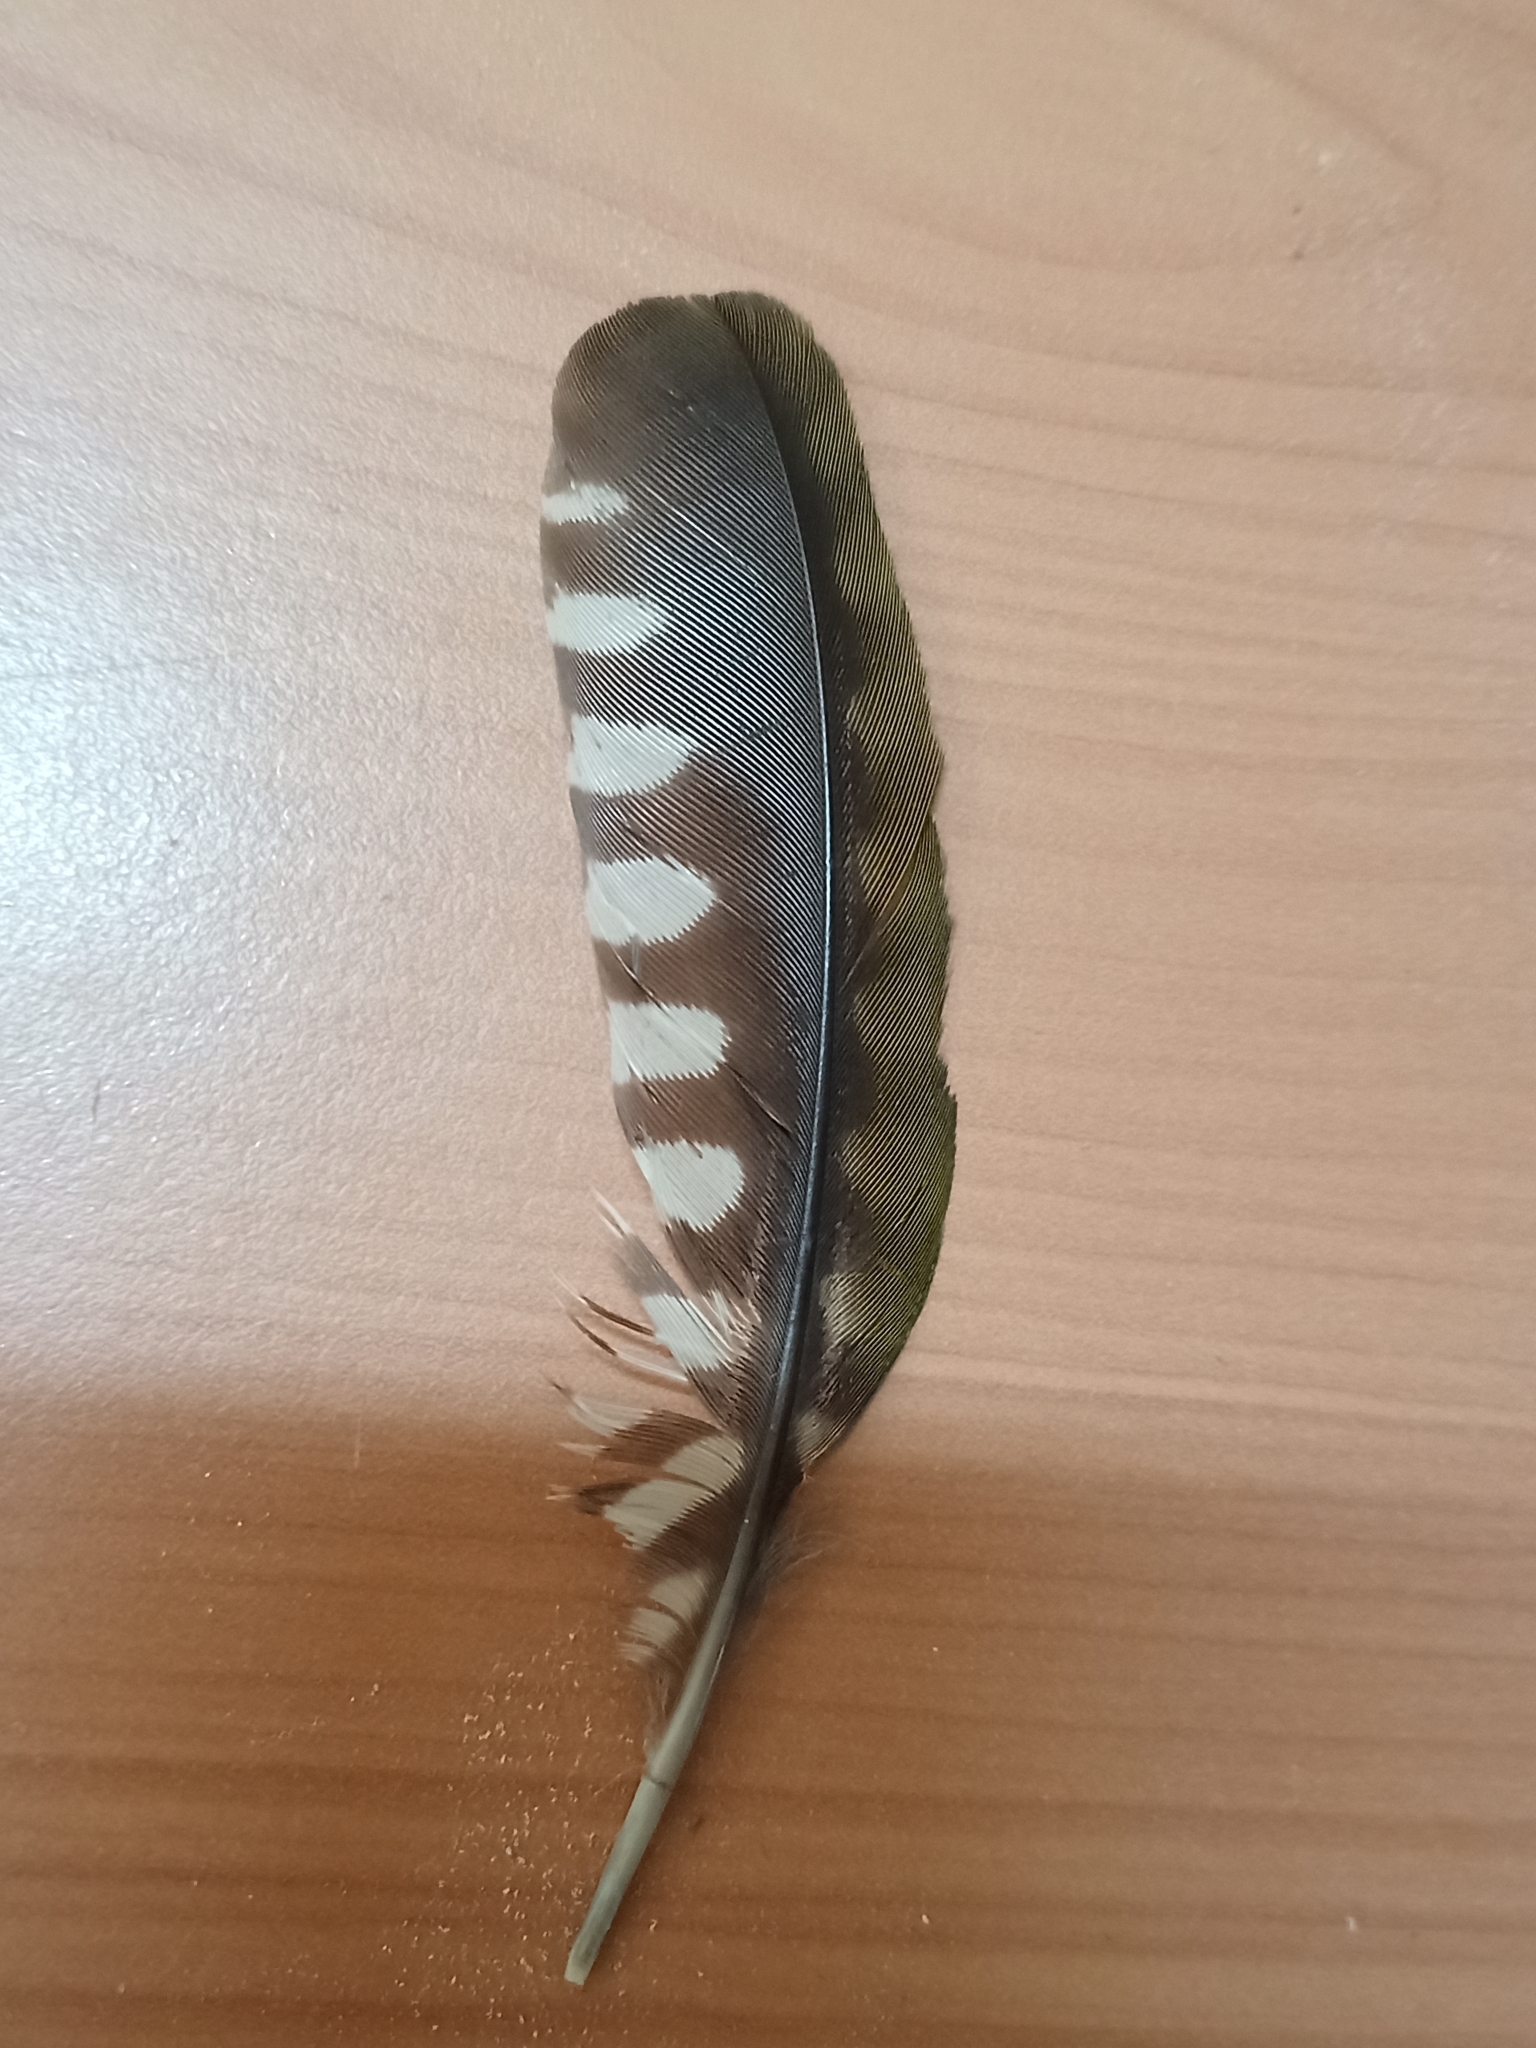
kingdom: Animalia
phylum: Chordata
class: Aves
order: Piciformes
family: Picidae
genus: Picus
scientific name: Picus sharpei
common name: Iberian green woodpecker
